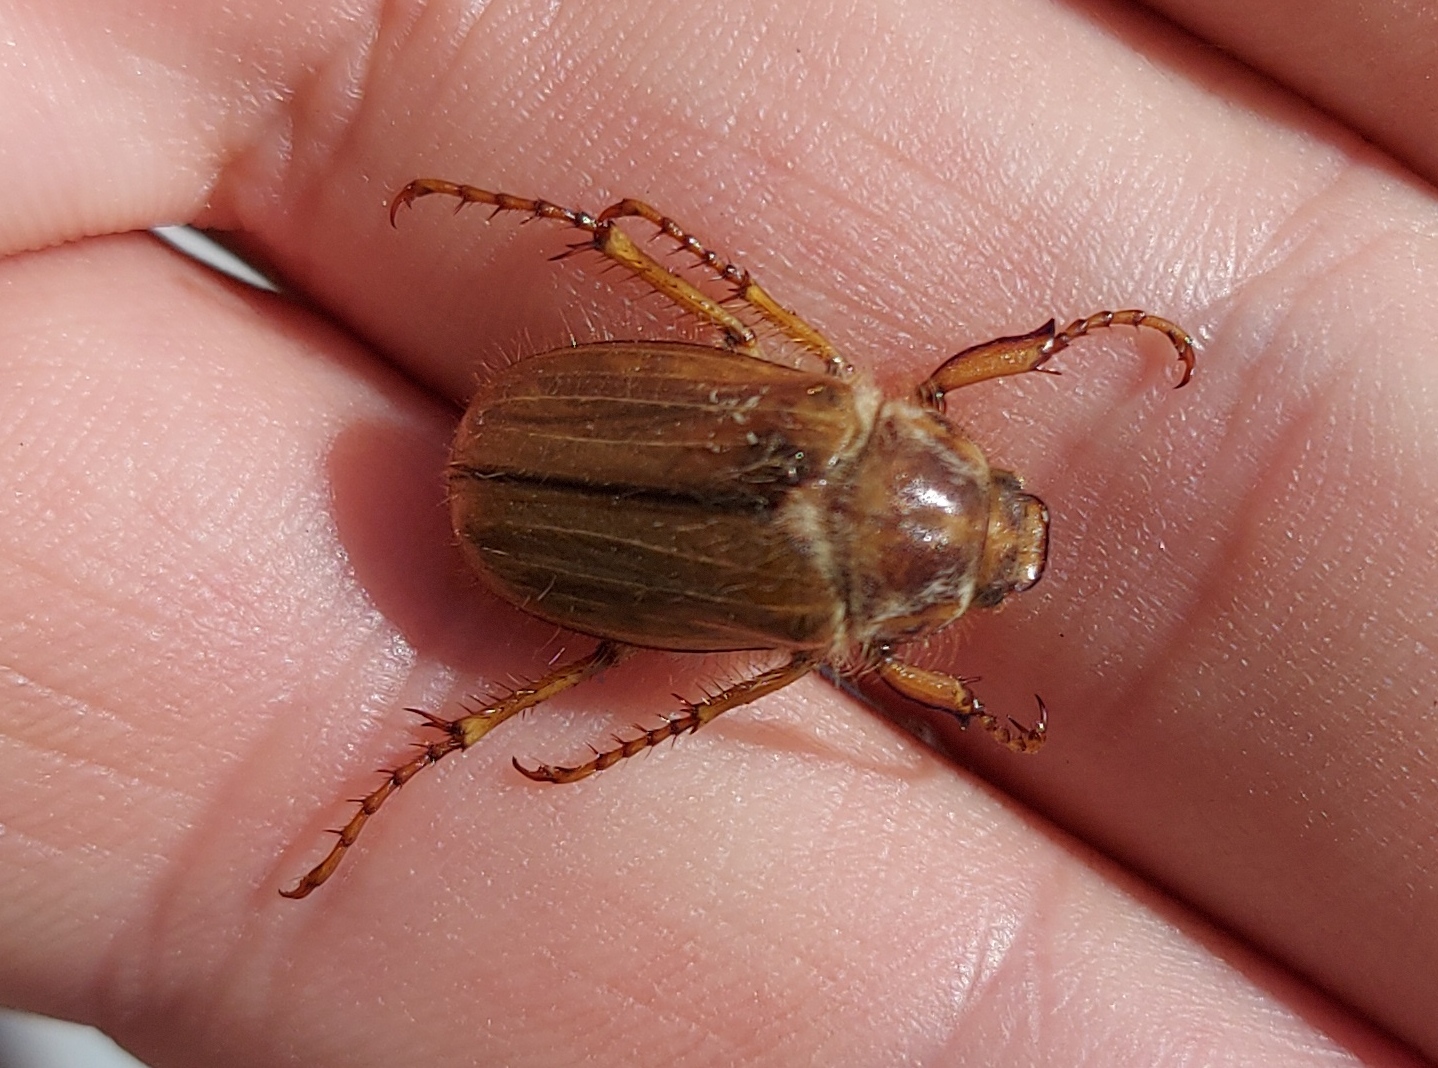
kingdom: Animalia
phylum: Arthropoda
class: Insecta
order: Coleoptera
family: Scarabaeidae
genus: Amphimallon
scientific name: Amphimallon solstitiale
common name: Summer chafer
